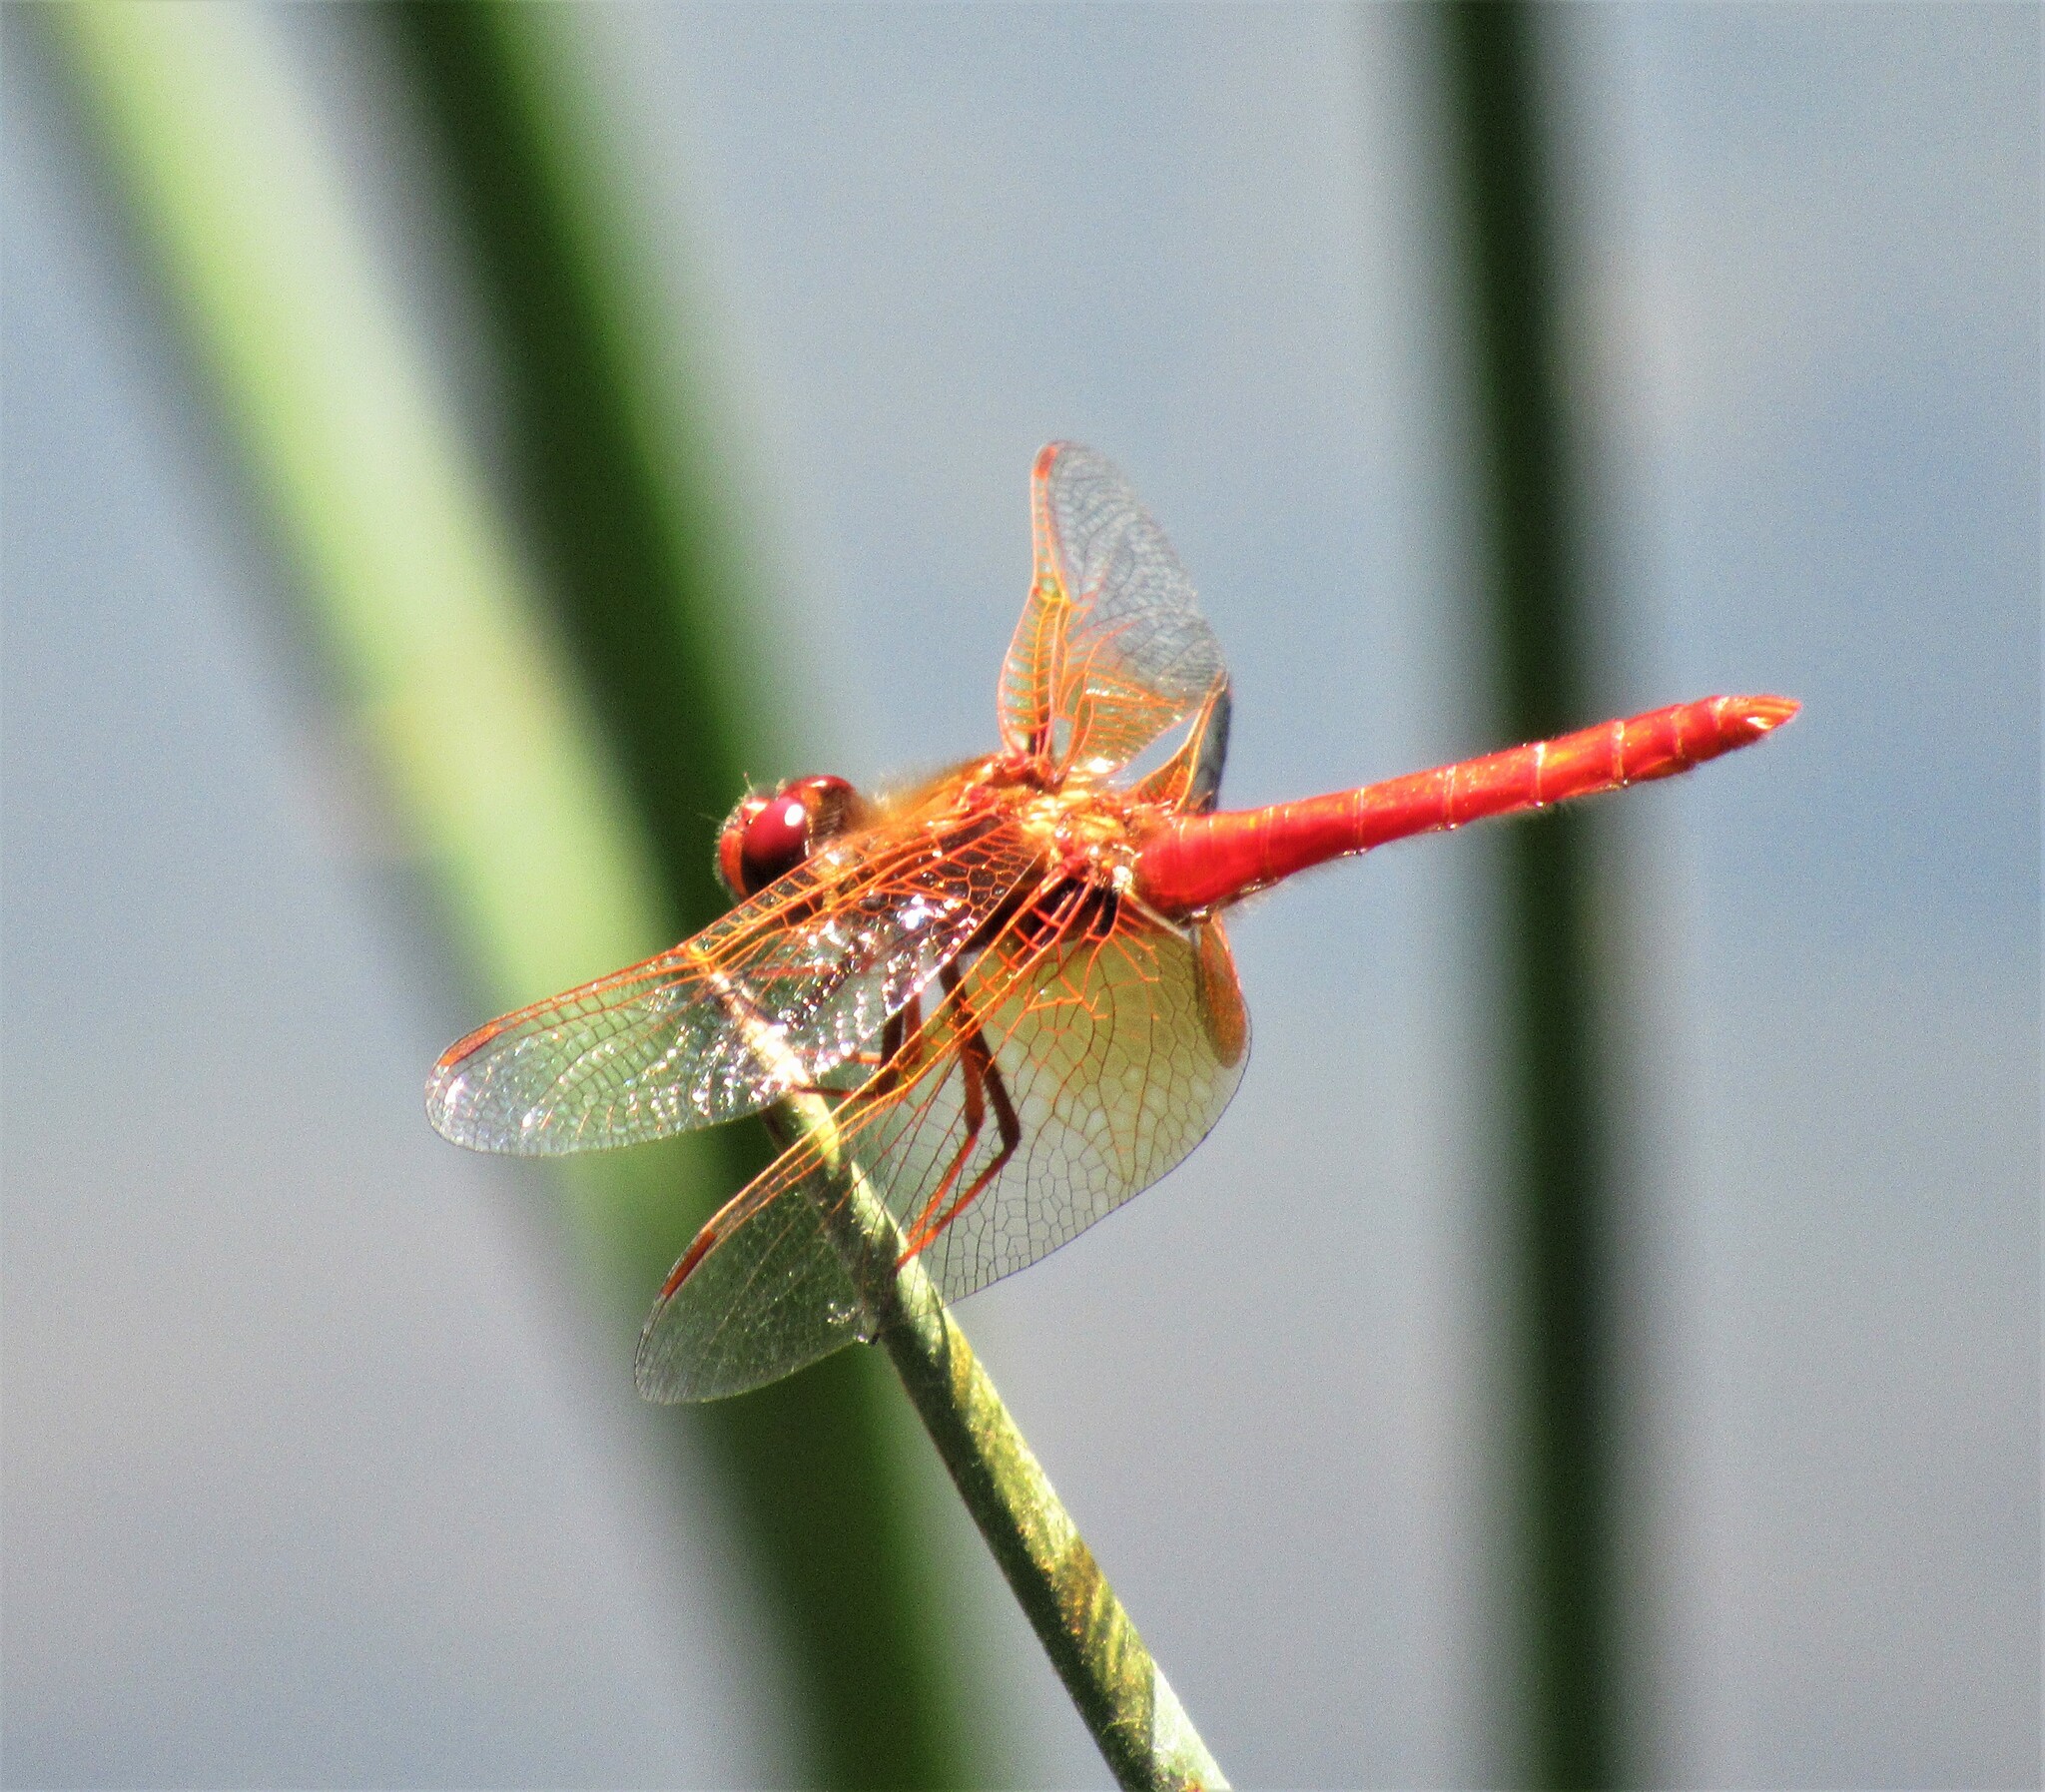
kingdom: Animalia
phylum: Arthropoda
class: Insecta
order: Odonata
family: Libellulidae
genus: Sympetrum
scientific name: Sympetrum illotum
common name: Cardinal meadowhawk
